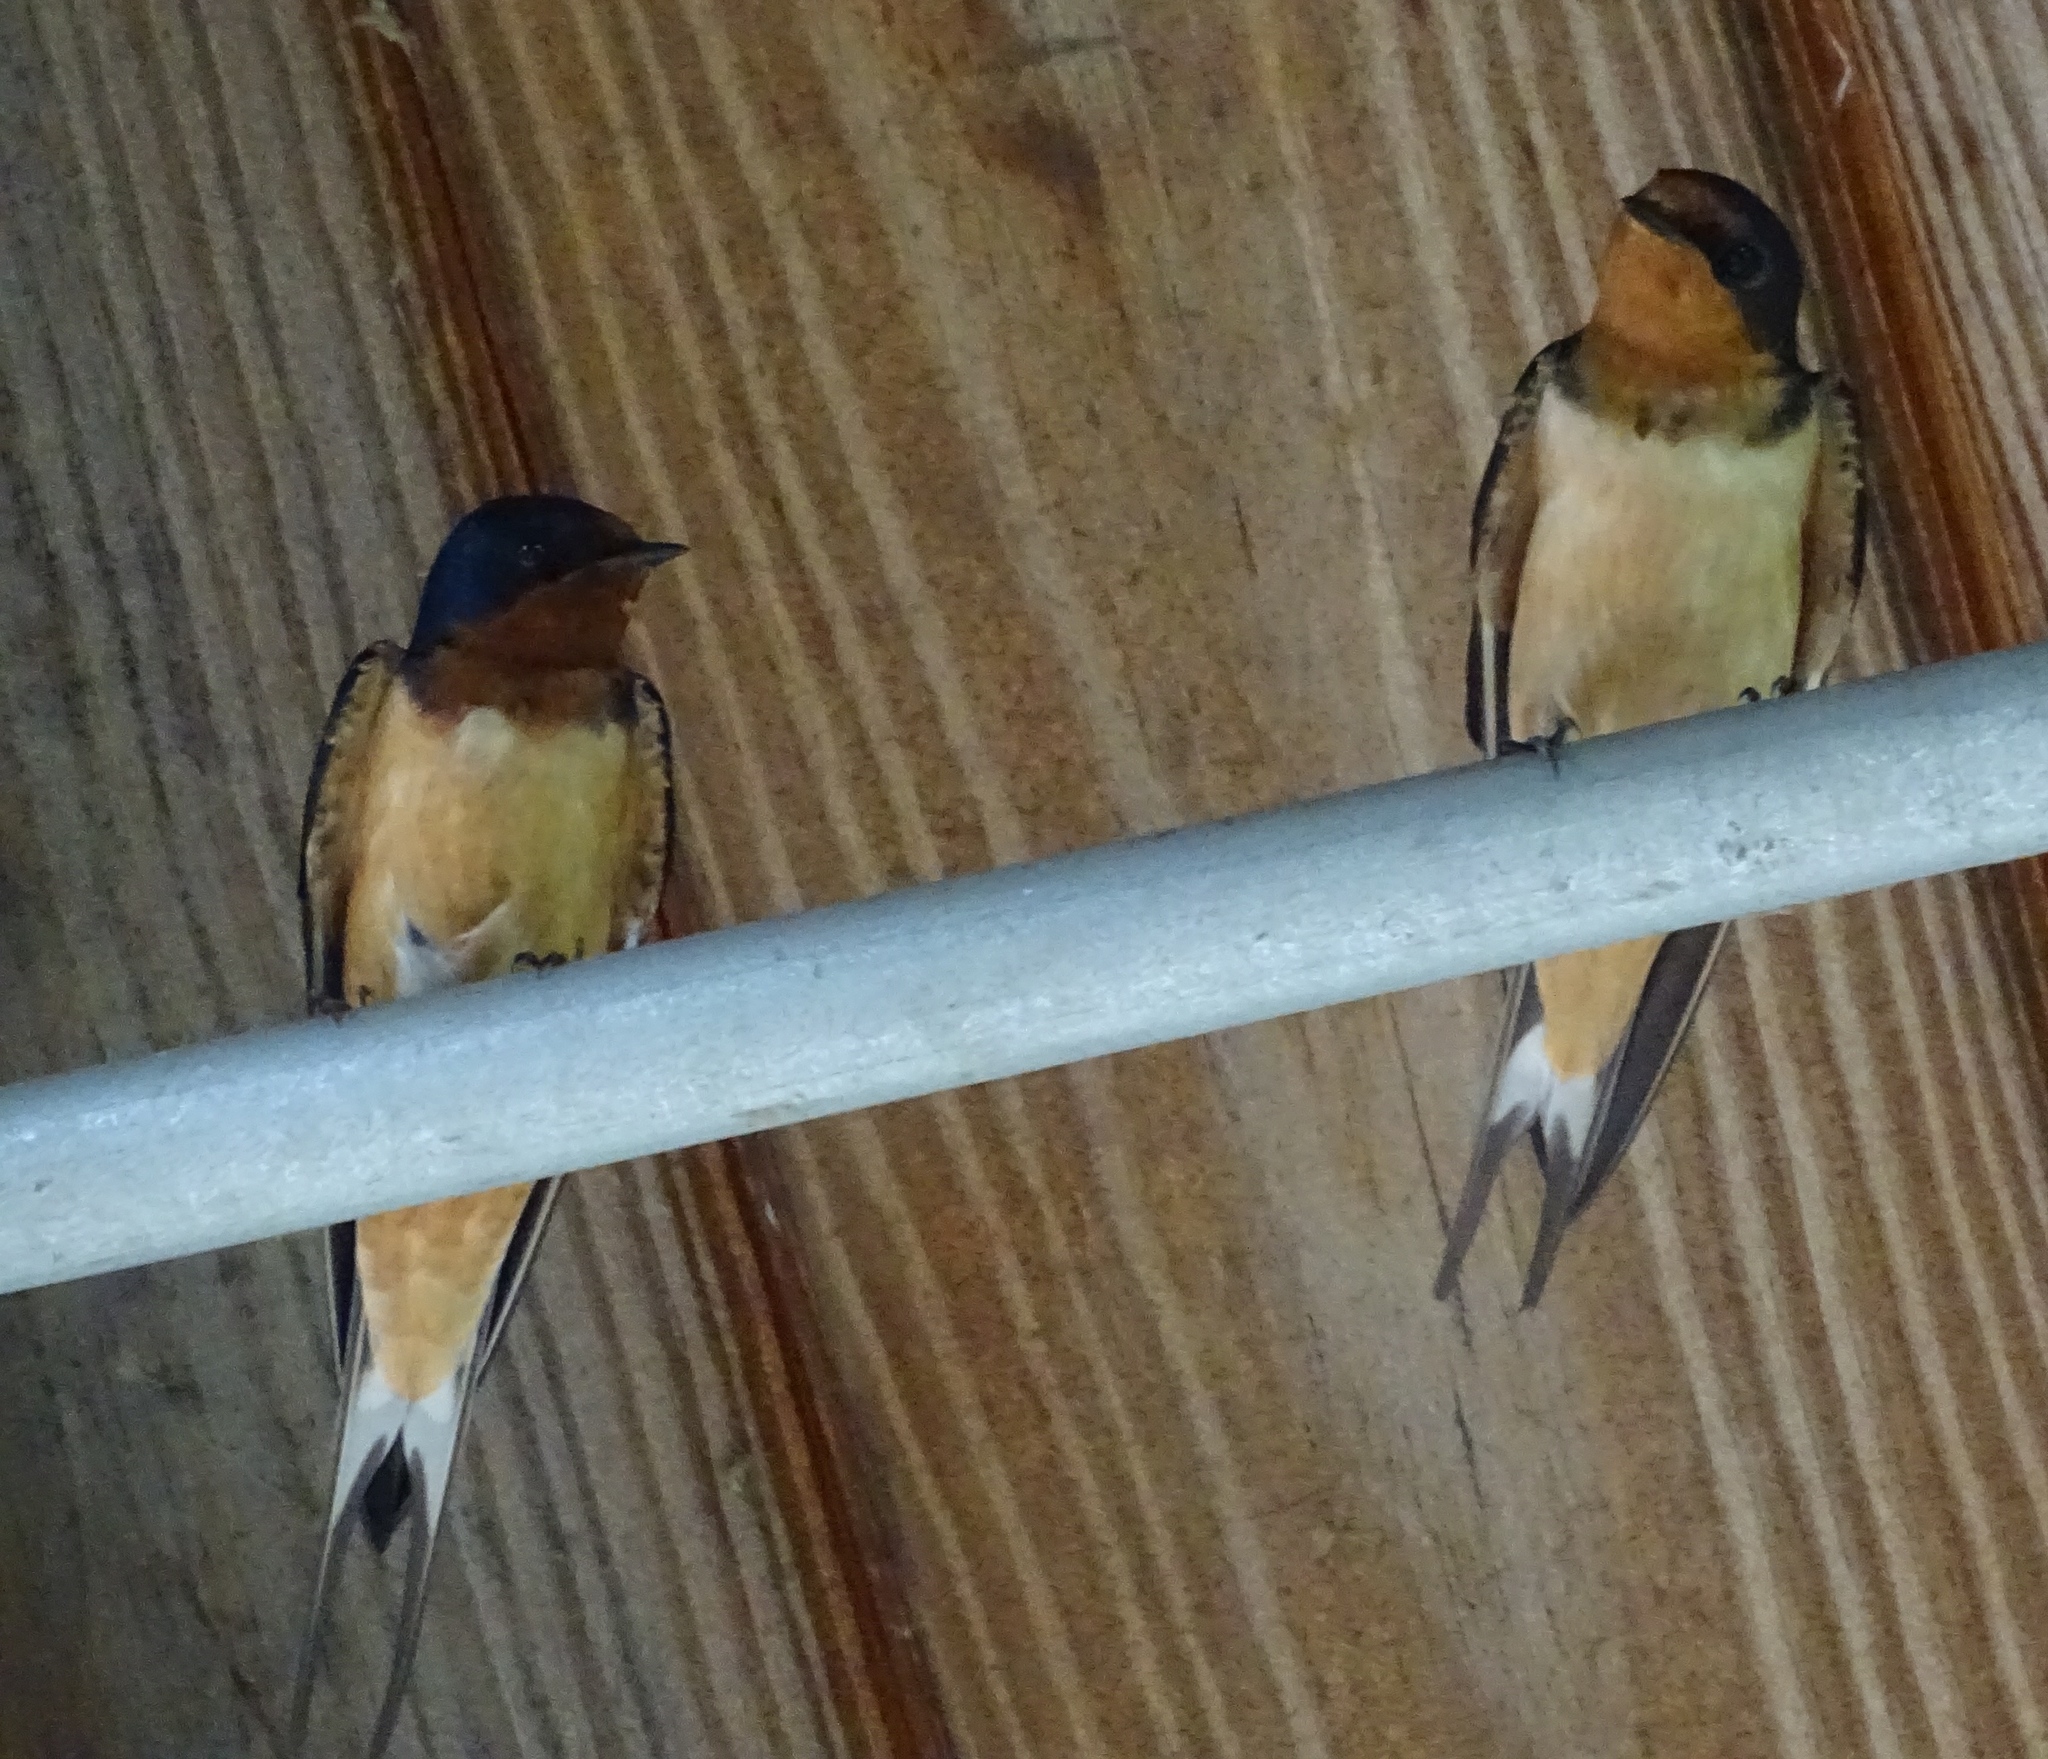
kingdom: Animalia
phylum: Chordata
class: Aves
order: Passeriformes
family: Hirundinidae
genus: Hirundo
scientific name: Hirundo rustica
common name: Barn swallow
